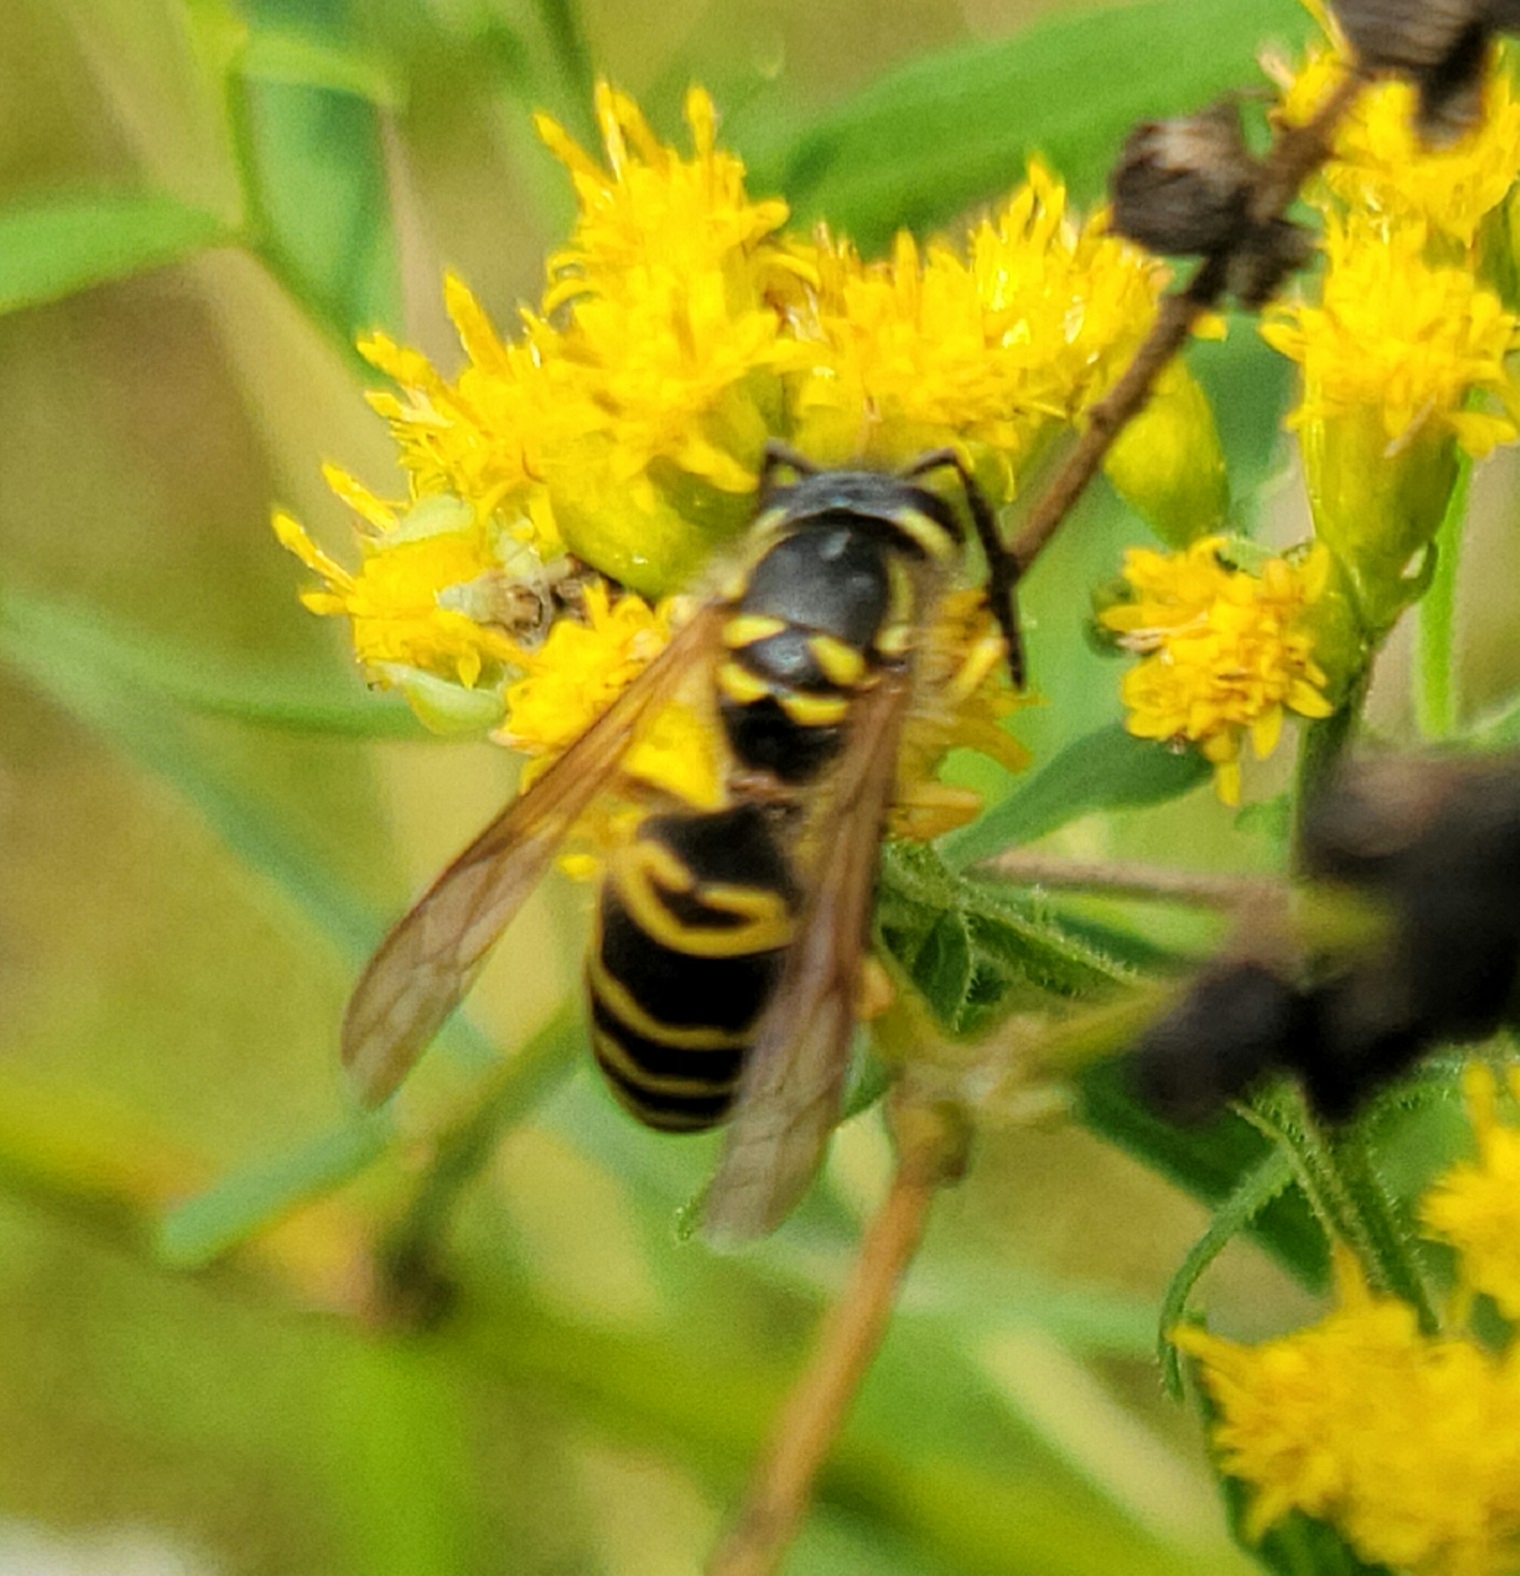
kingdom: Animalia
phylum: Arthropoda
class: Insecta
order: Hymenoptera
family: Vespidae
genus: Vespula
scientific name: Vespula maculifrons
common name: Eastern yellowjacket
